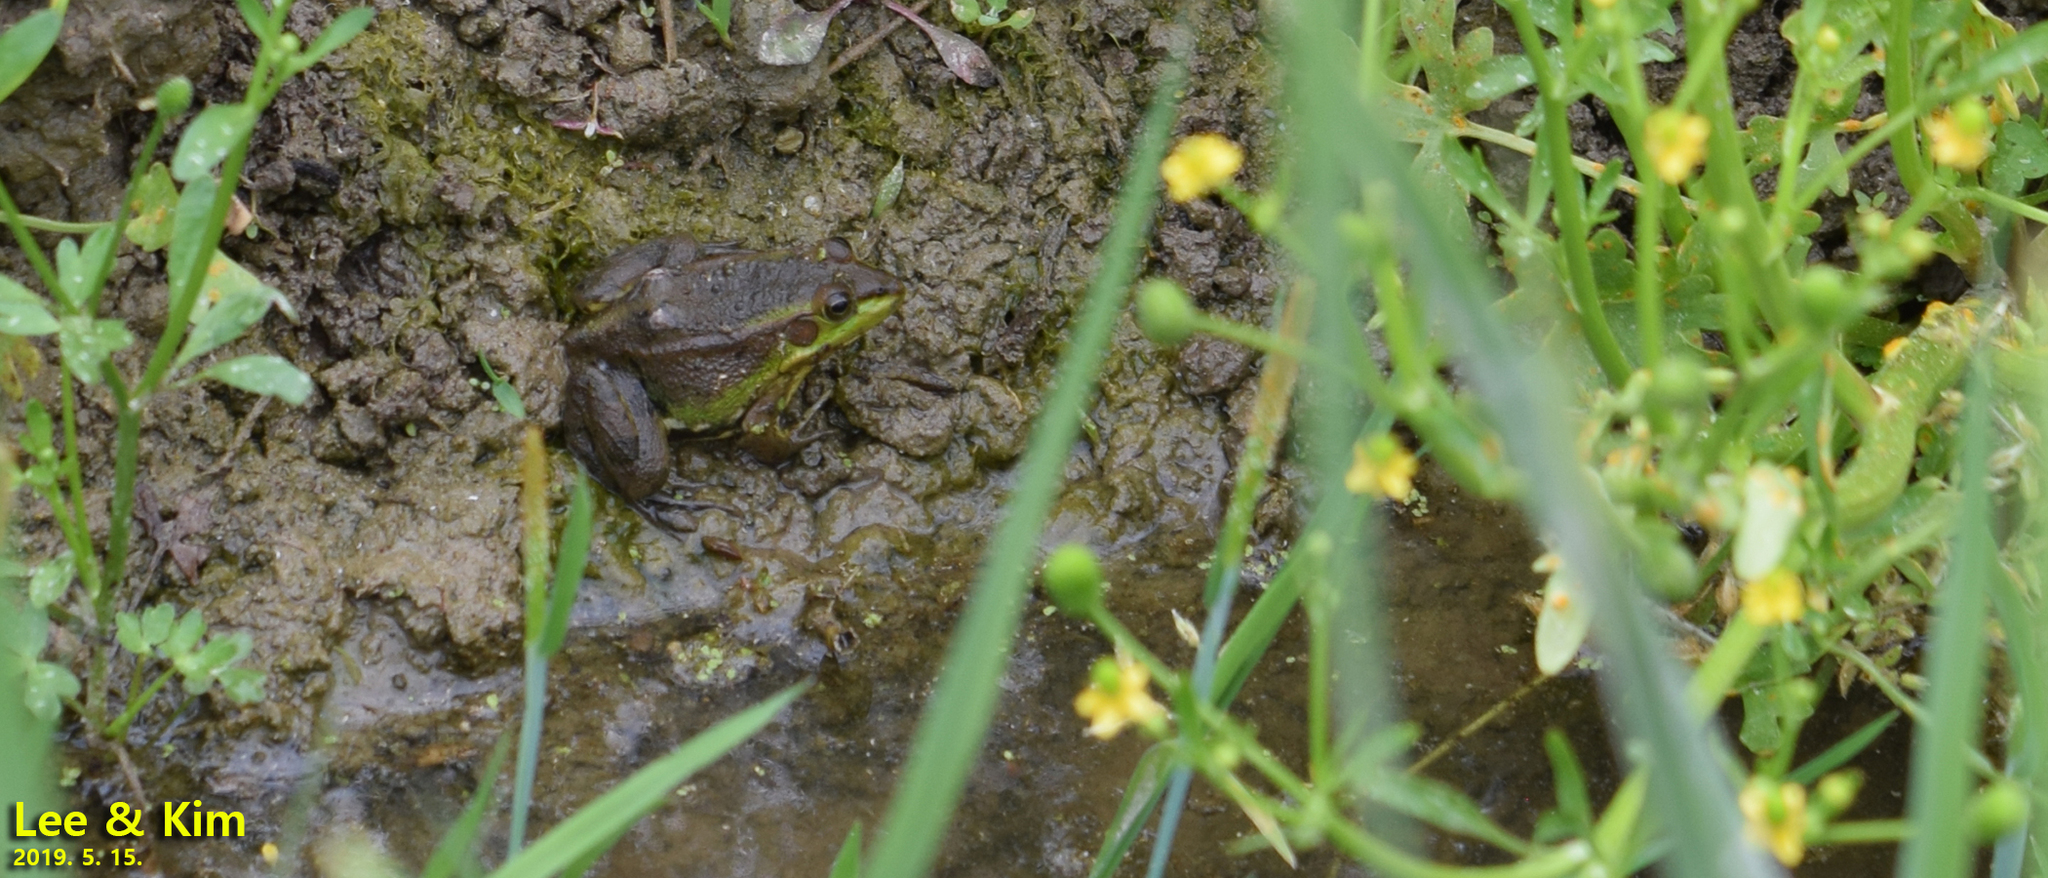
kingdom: Animalia
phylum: Chordata
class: Amphibia
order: Anura
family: Ranidae
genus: Pelophylax
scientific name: Pelophylax chosenicus
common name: Gold-spotted pond frog
